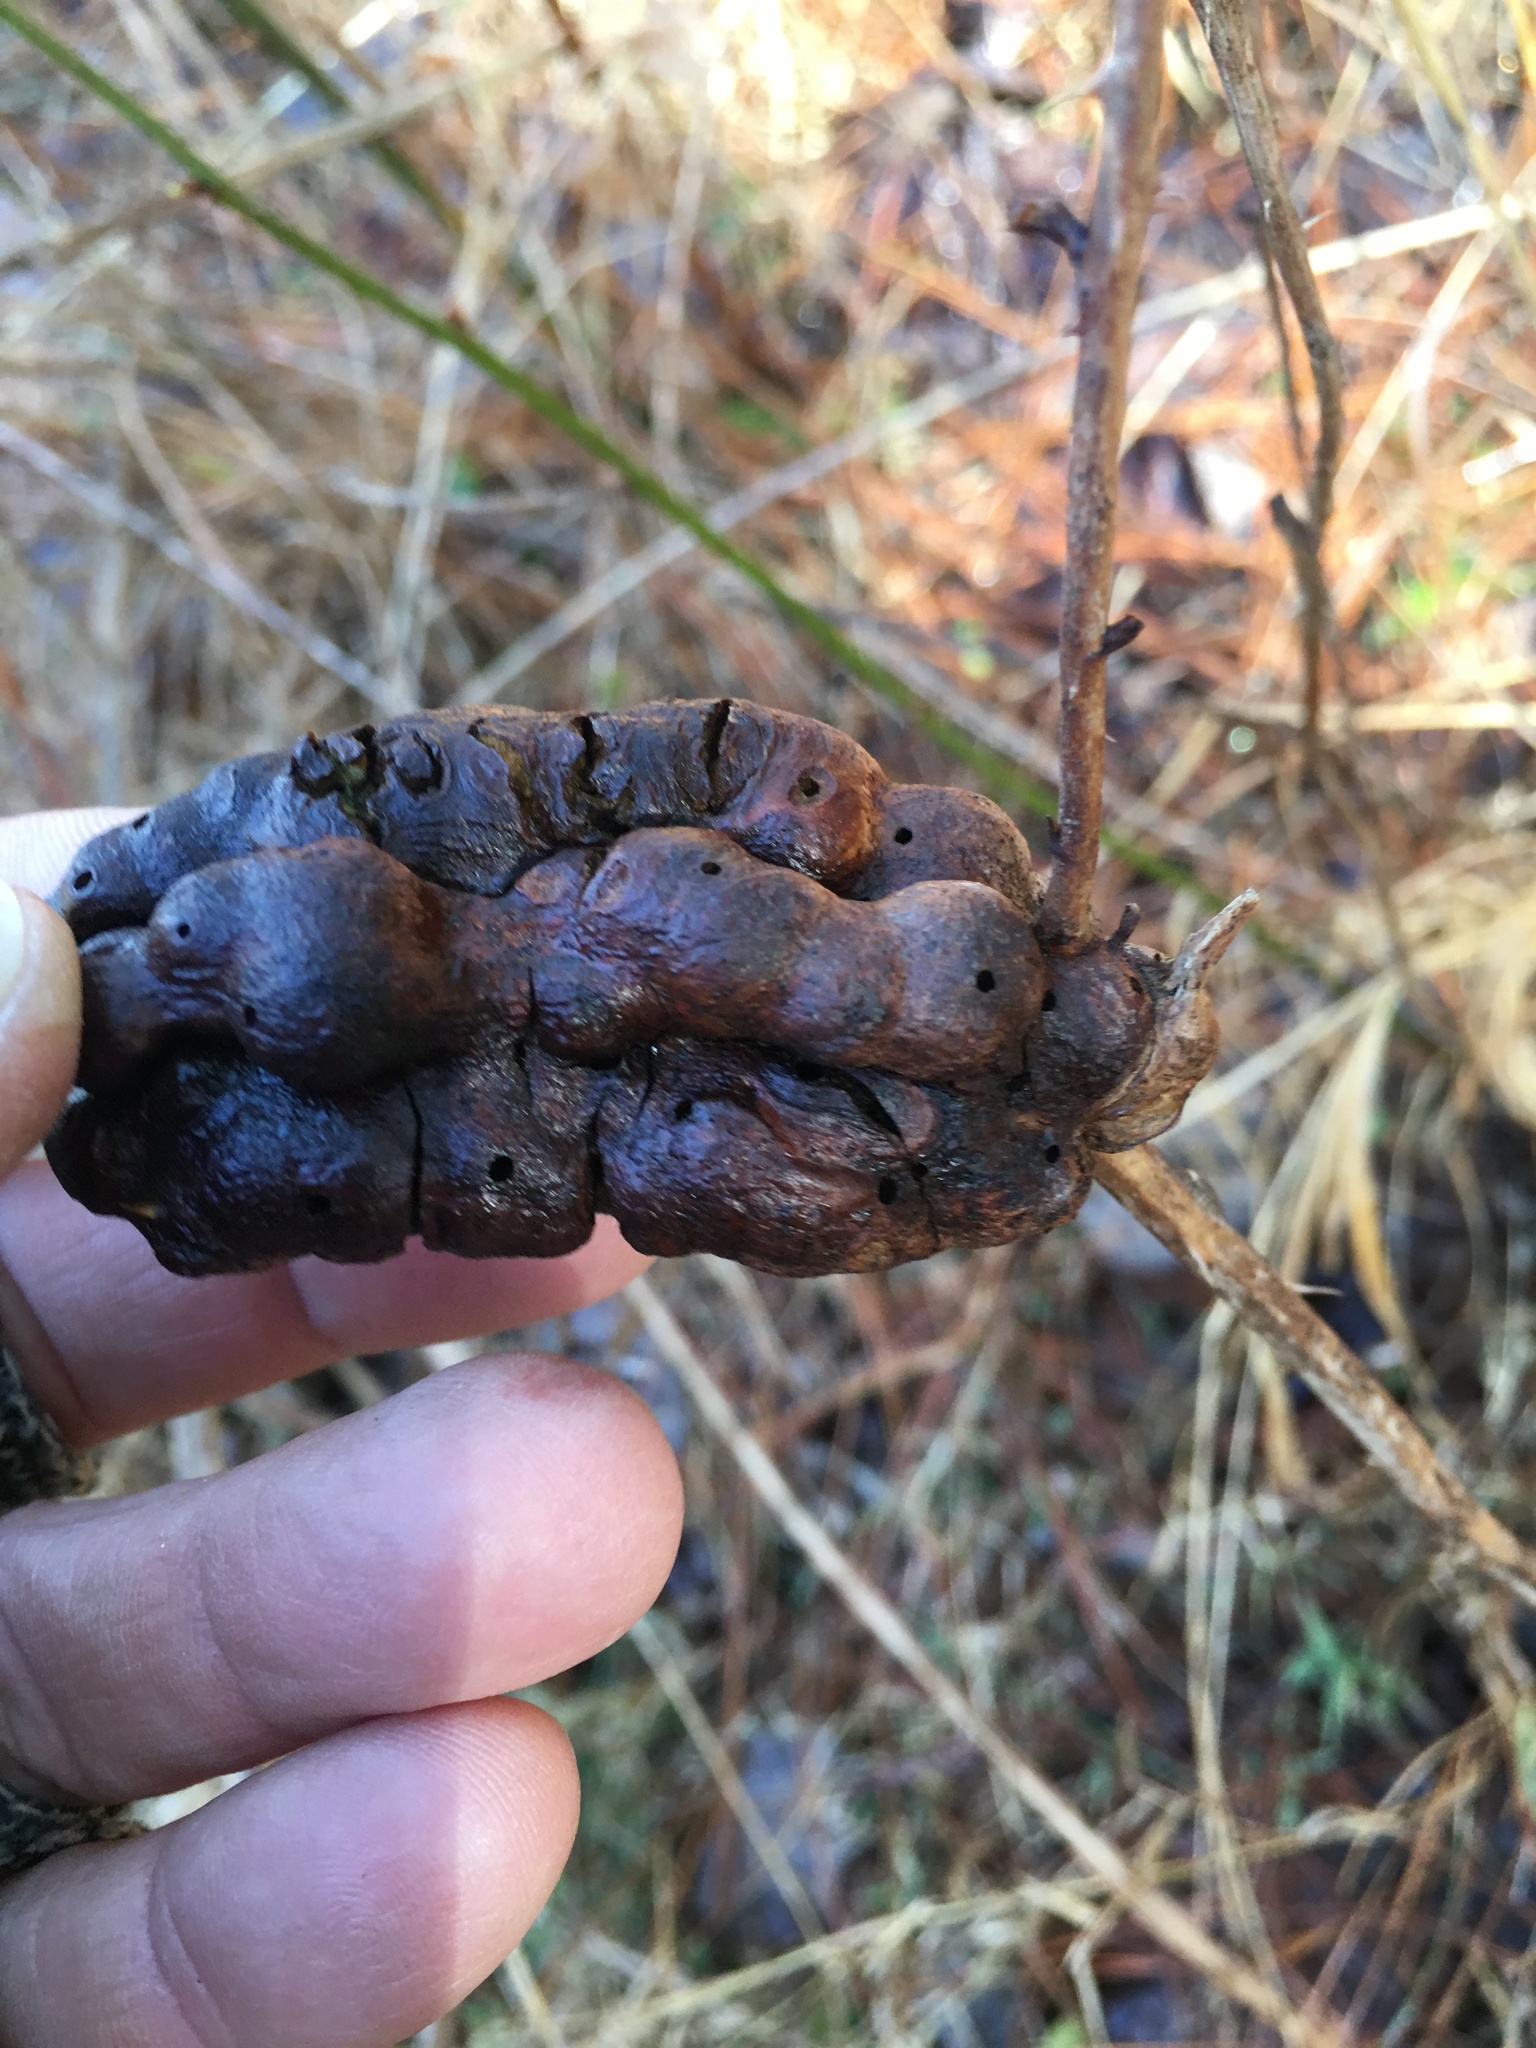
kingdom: Animalia
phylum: Arthropoda
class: Insecta
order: Hymenoptera
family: Cynipidae
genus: Diastrophus
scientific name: Diastrophus
